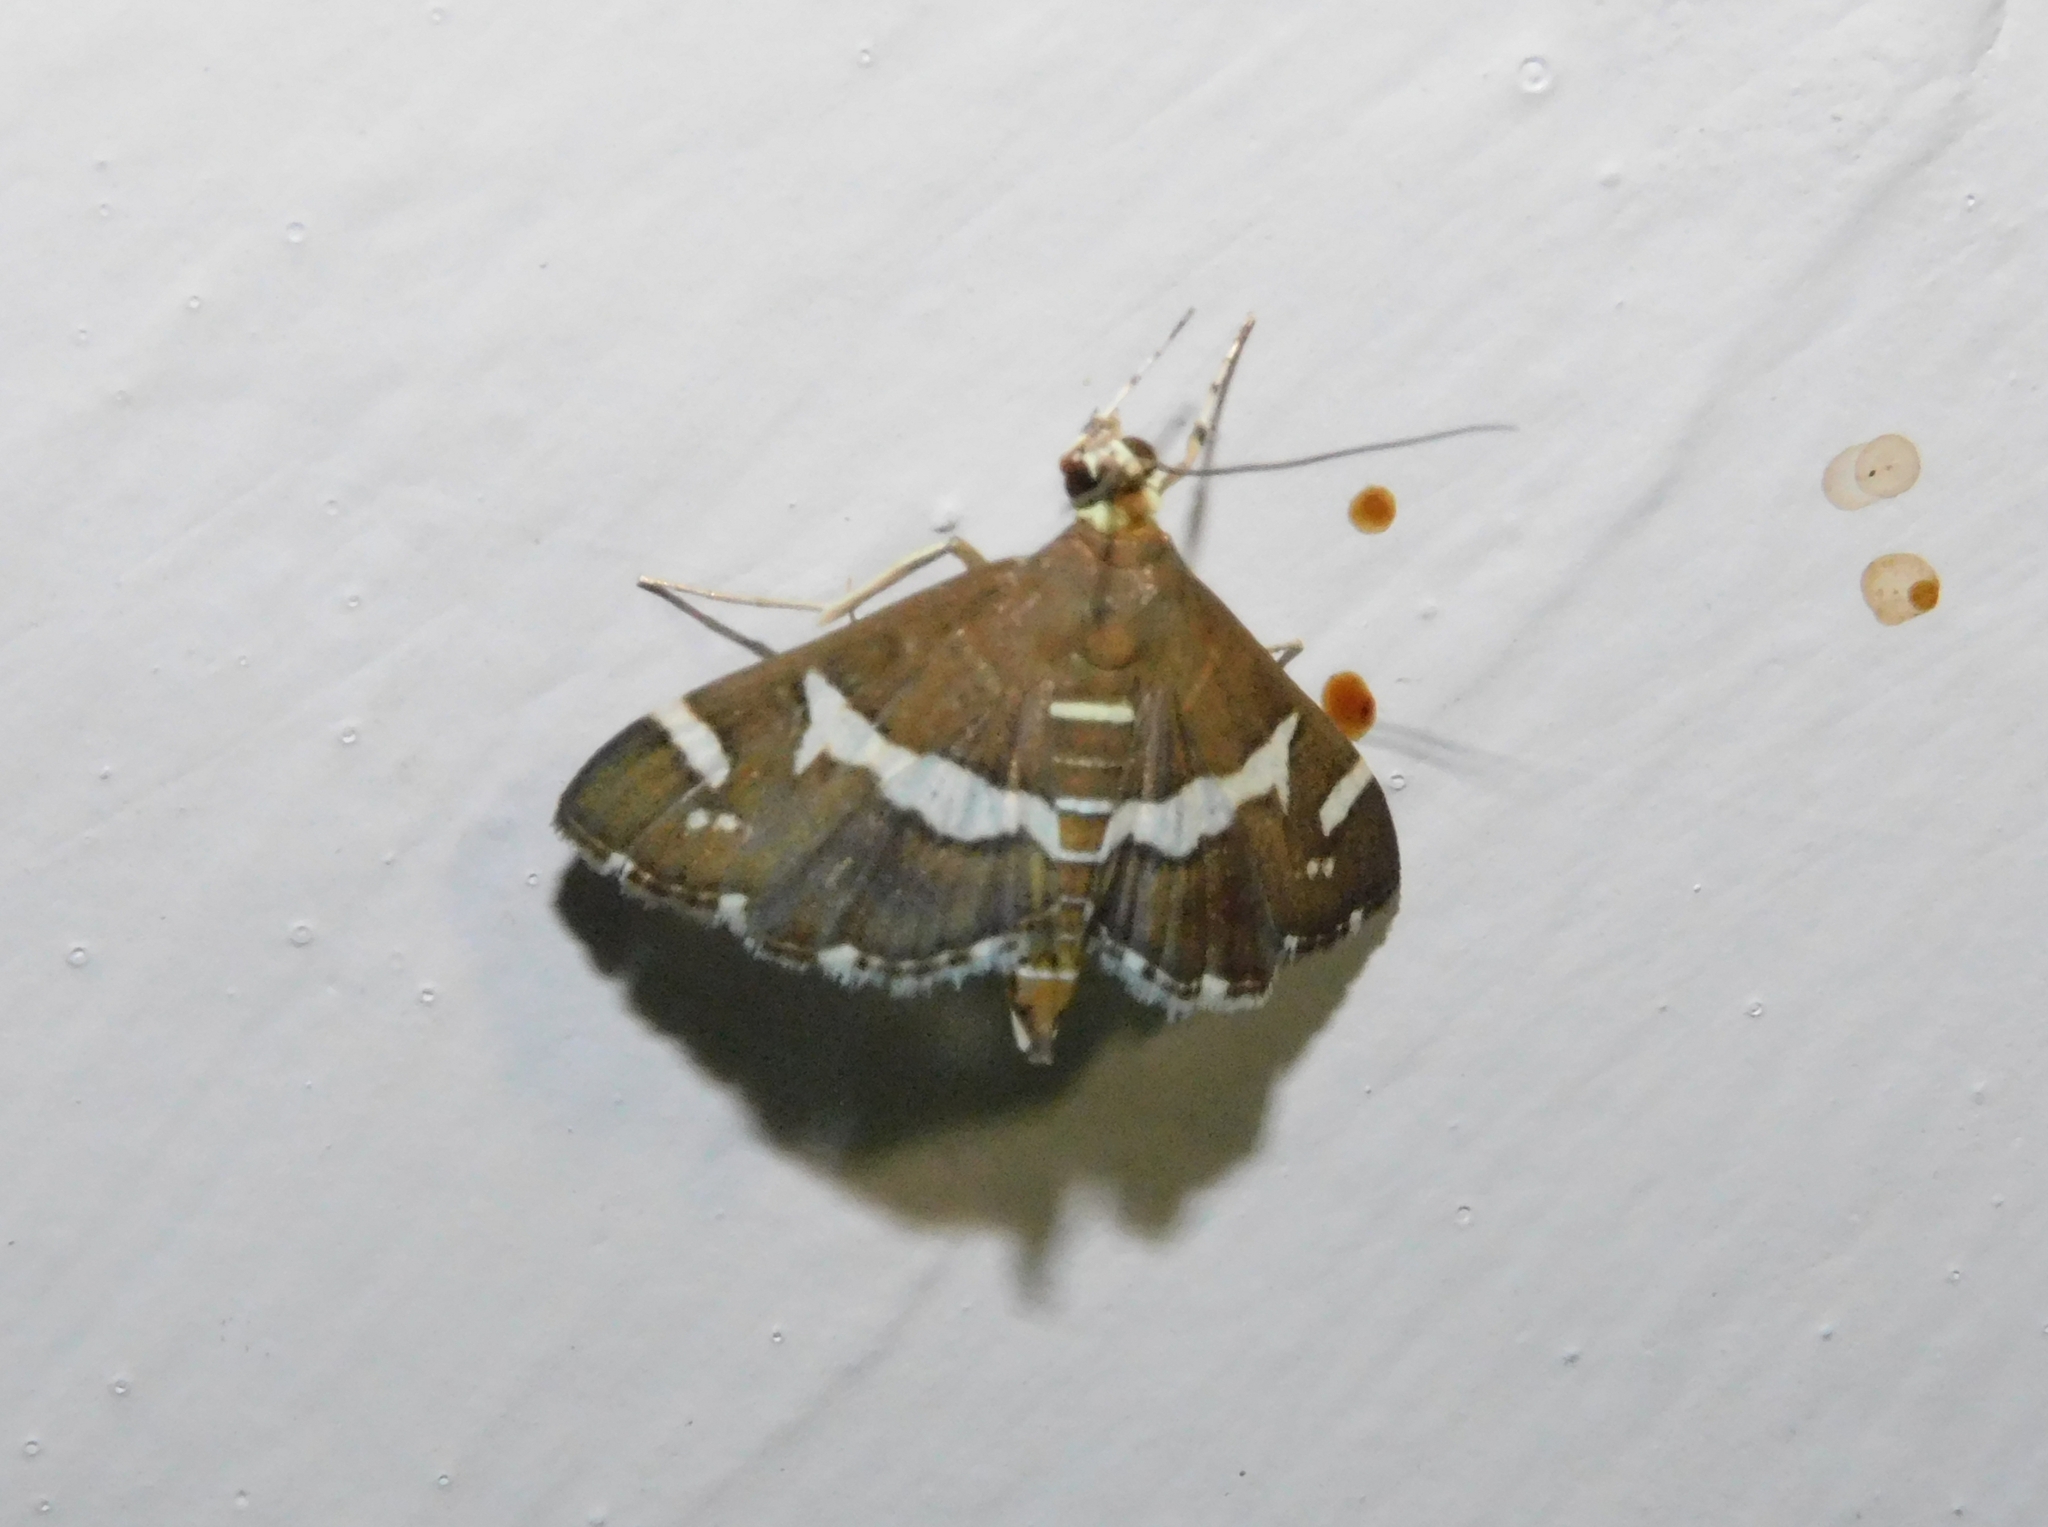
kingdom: Animalia
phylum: Arthropoda
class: Insecta
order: Lepidoptera
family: Crambidae
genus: Spoladea
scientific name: Spoladea recurvalis
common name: Beet webworm moth
